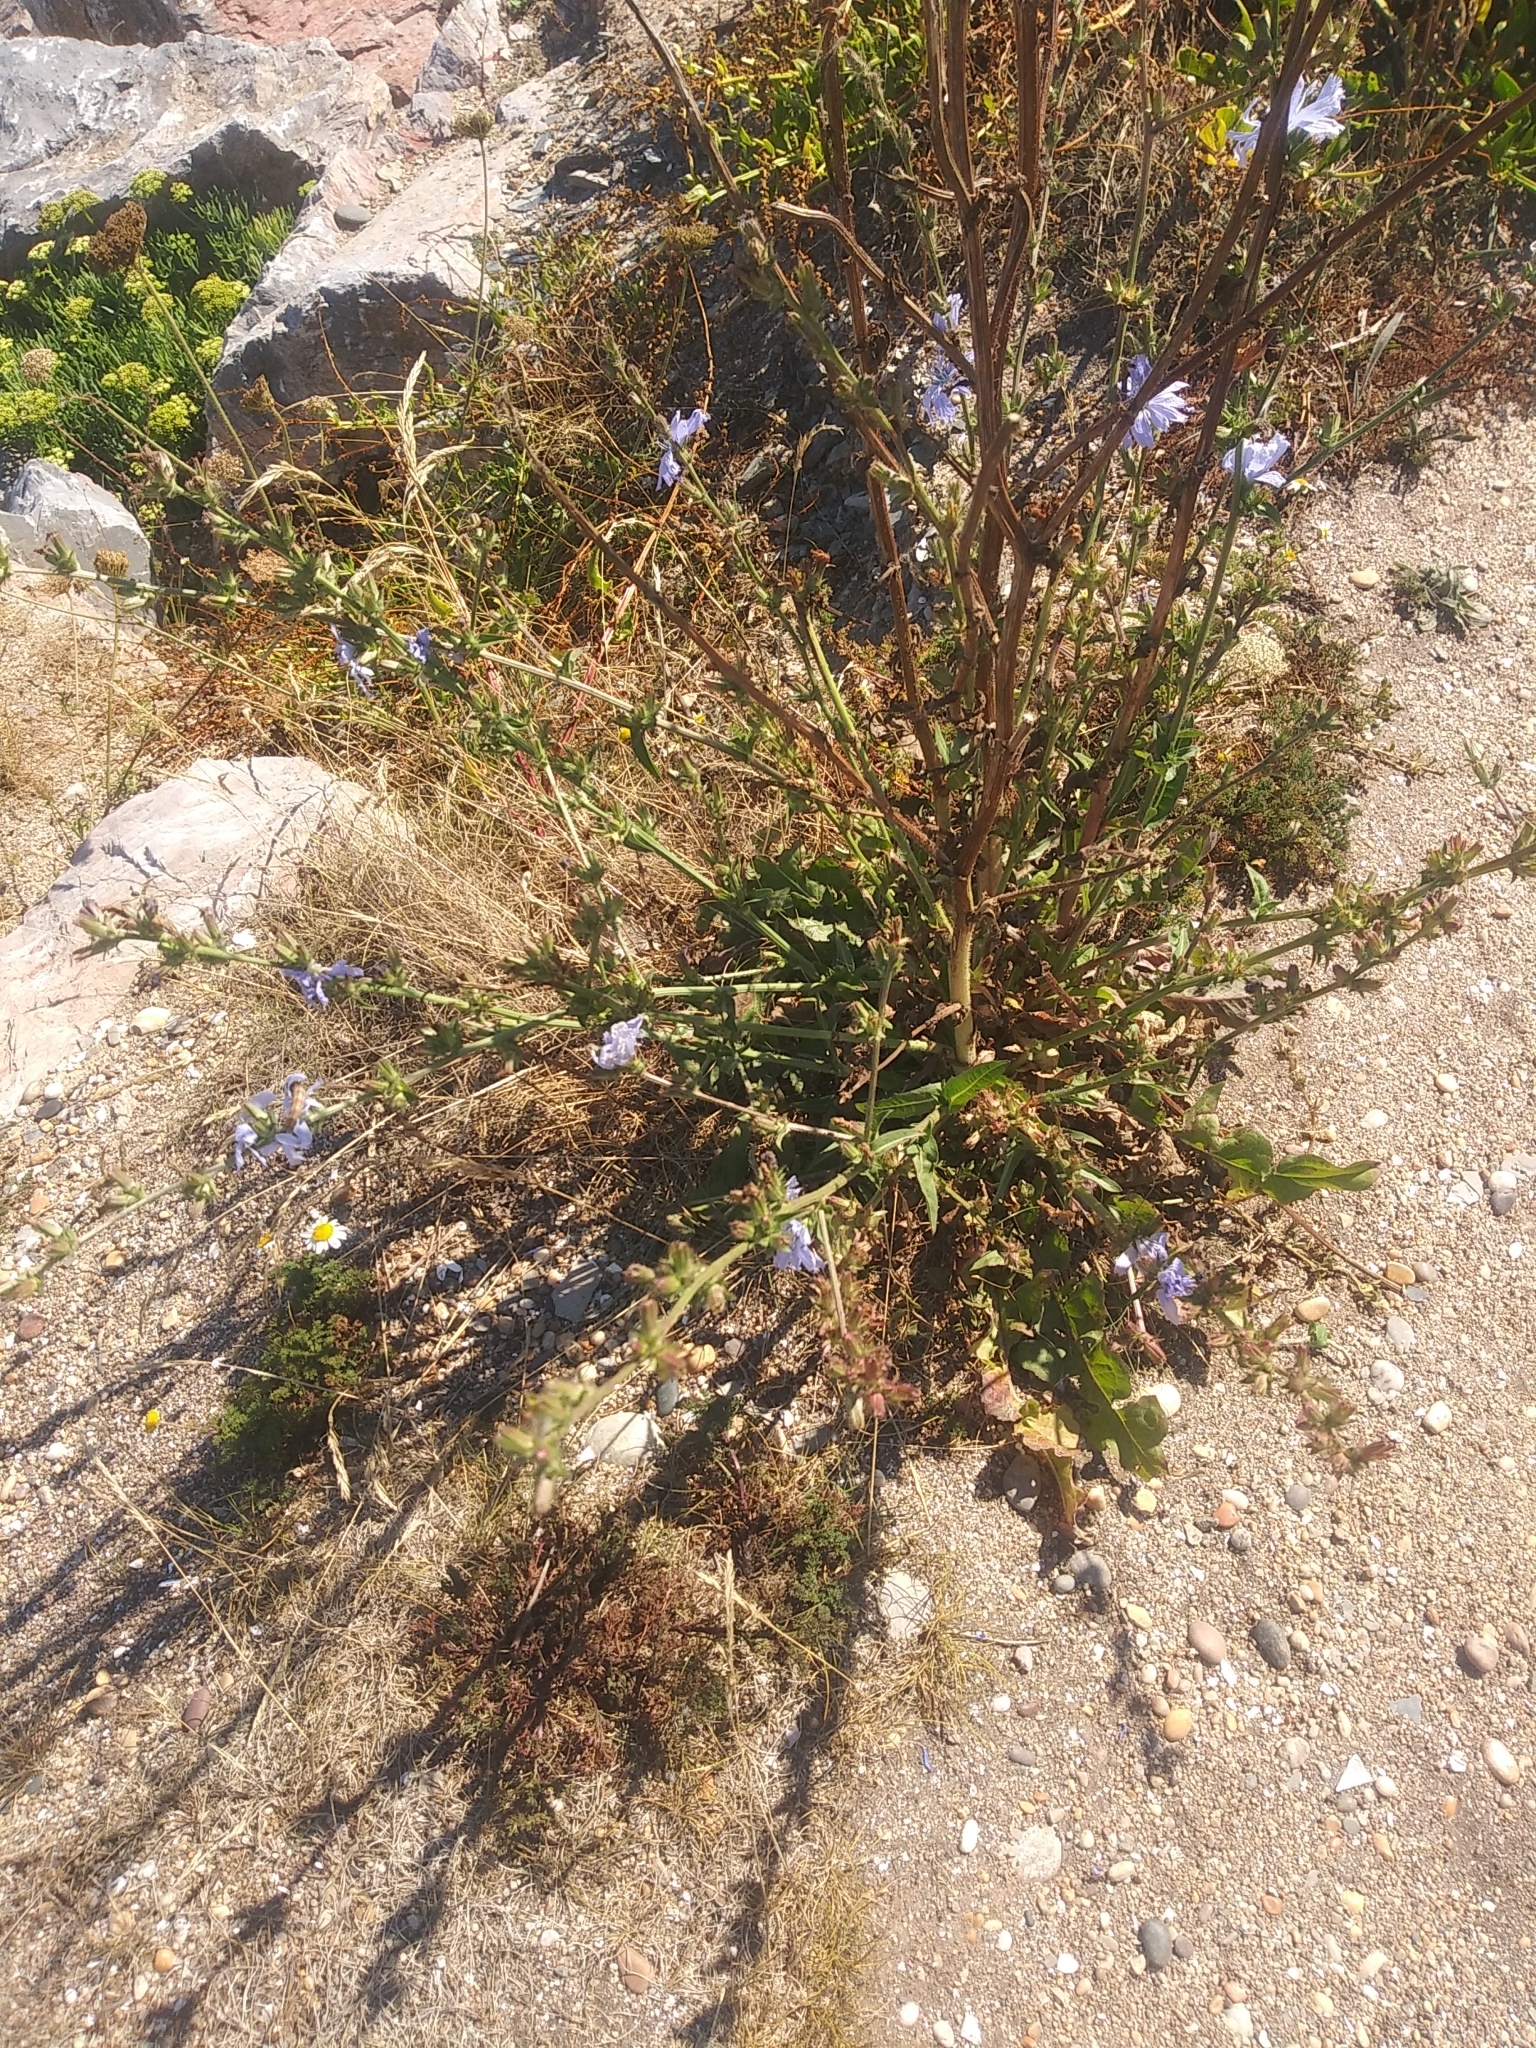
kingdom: Plantae
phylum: Tracheophyta
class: Magnoliopsida
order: Asterales
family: Asteraceae
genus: Cichorium
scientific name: Cichorium intybus
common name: Chicory
